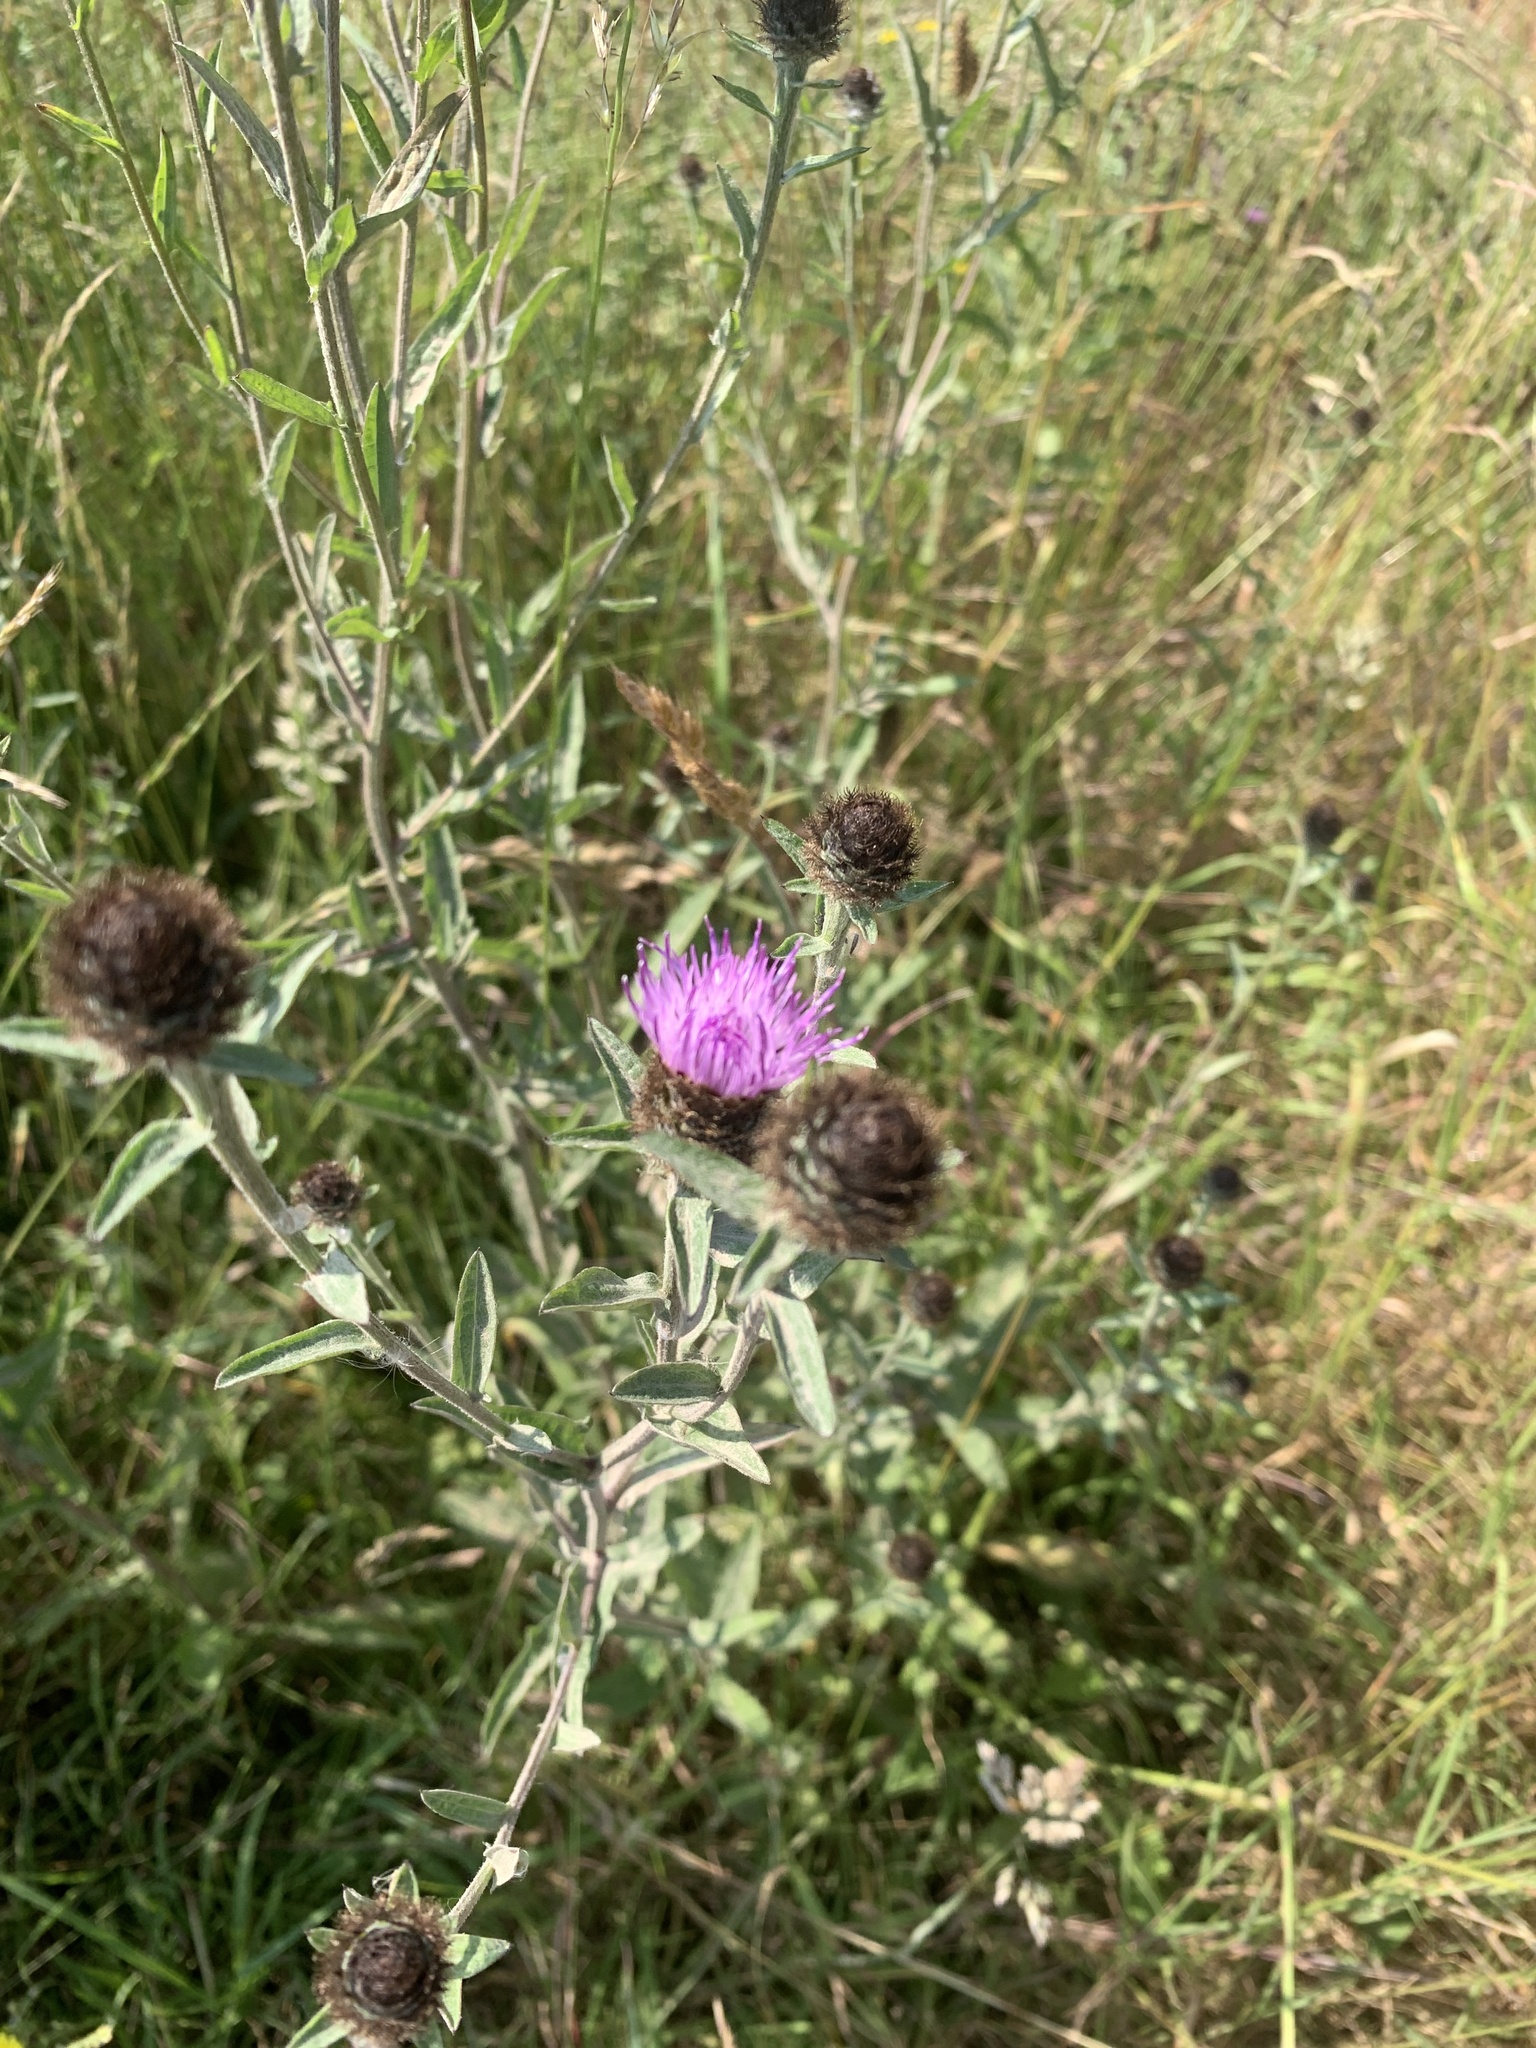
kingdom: Plantae
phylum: Tracheophyta
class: Magnoliopsida
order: Asterales
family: Asteraceae
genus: Centaurea
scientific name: Centaurea nigra
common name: Lesser knapweed
